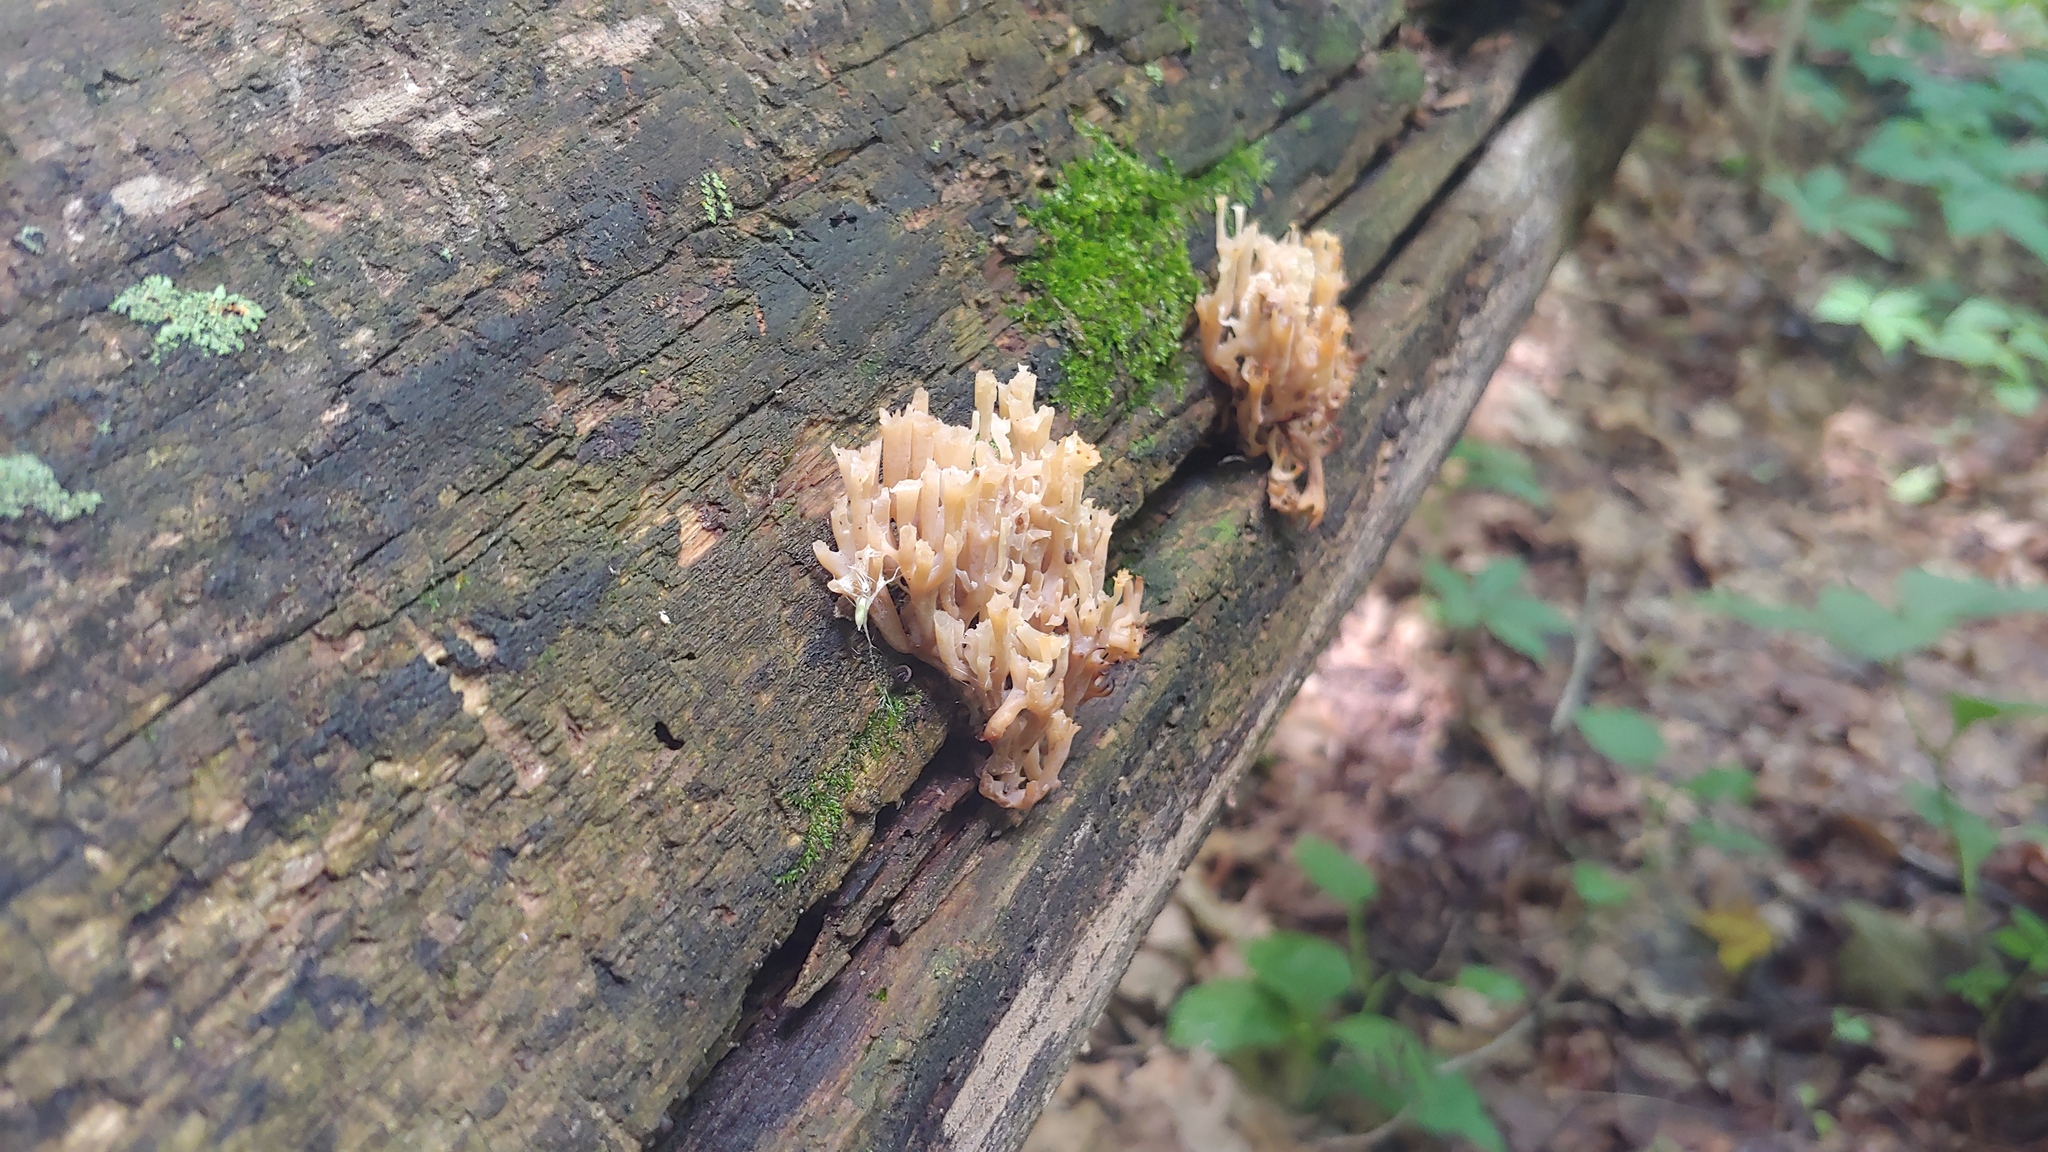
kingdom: Fungi
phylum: Basidiomycota
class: Agaricomycetes
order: Russulales
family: Auriscalpiaceae
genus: Artomyces
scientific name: Artomyces pyxidatus
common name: Crown-tipped coral fungus
